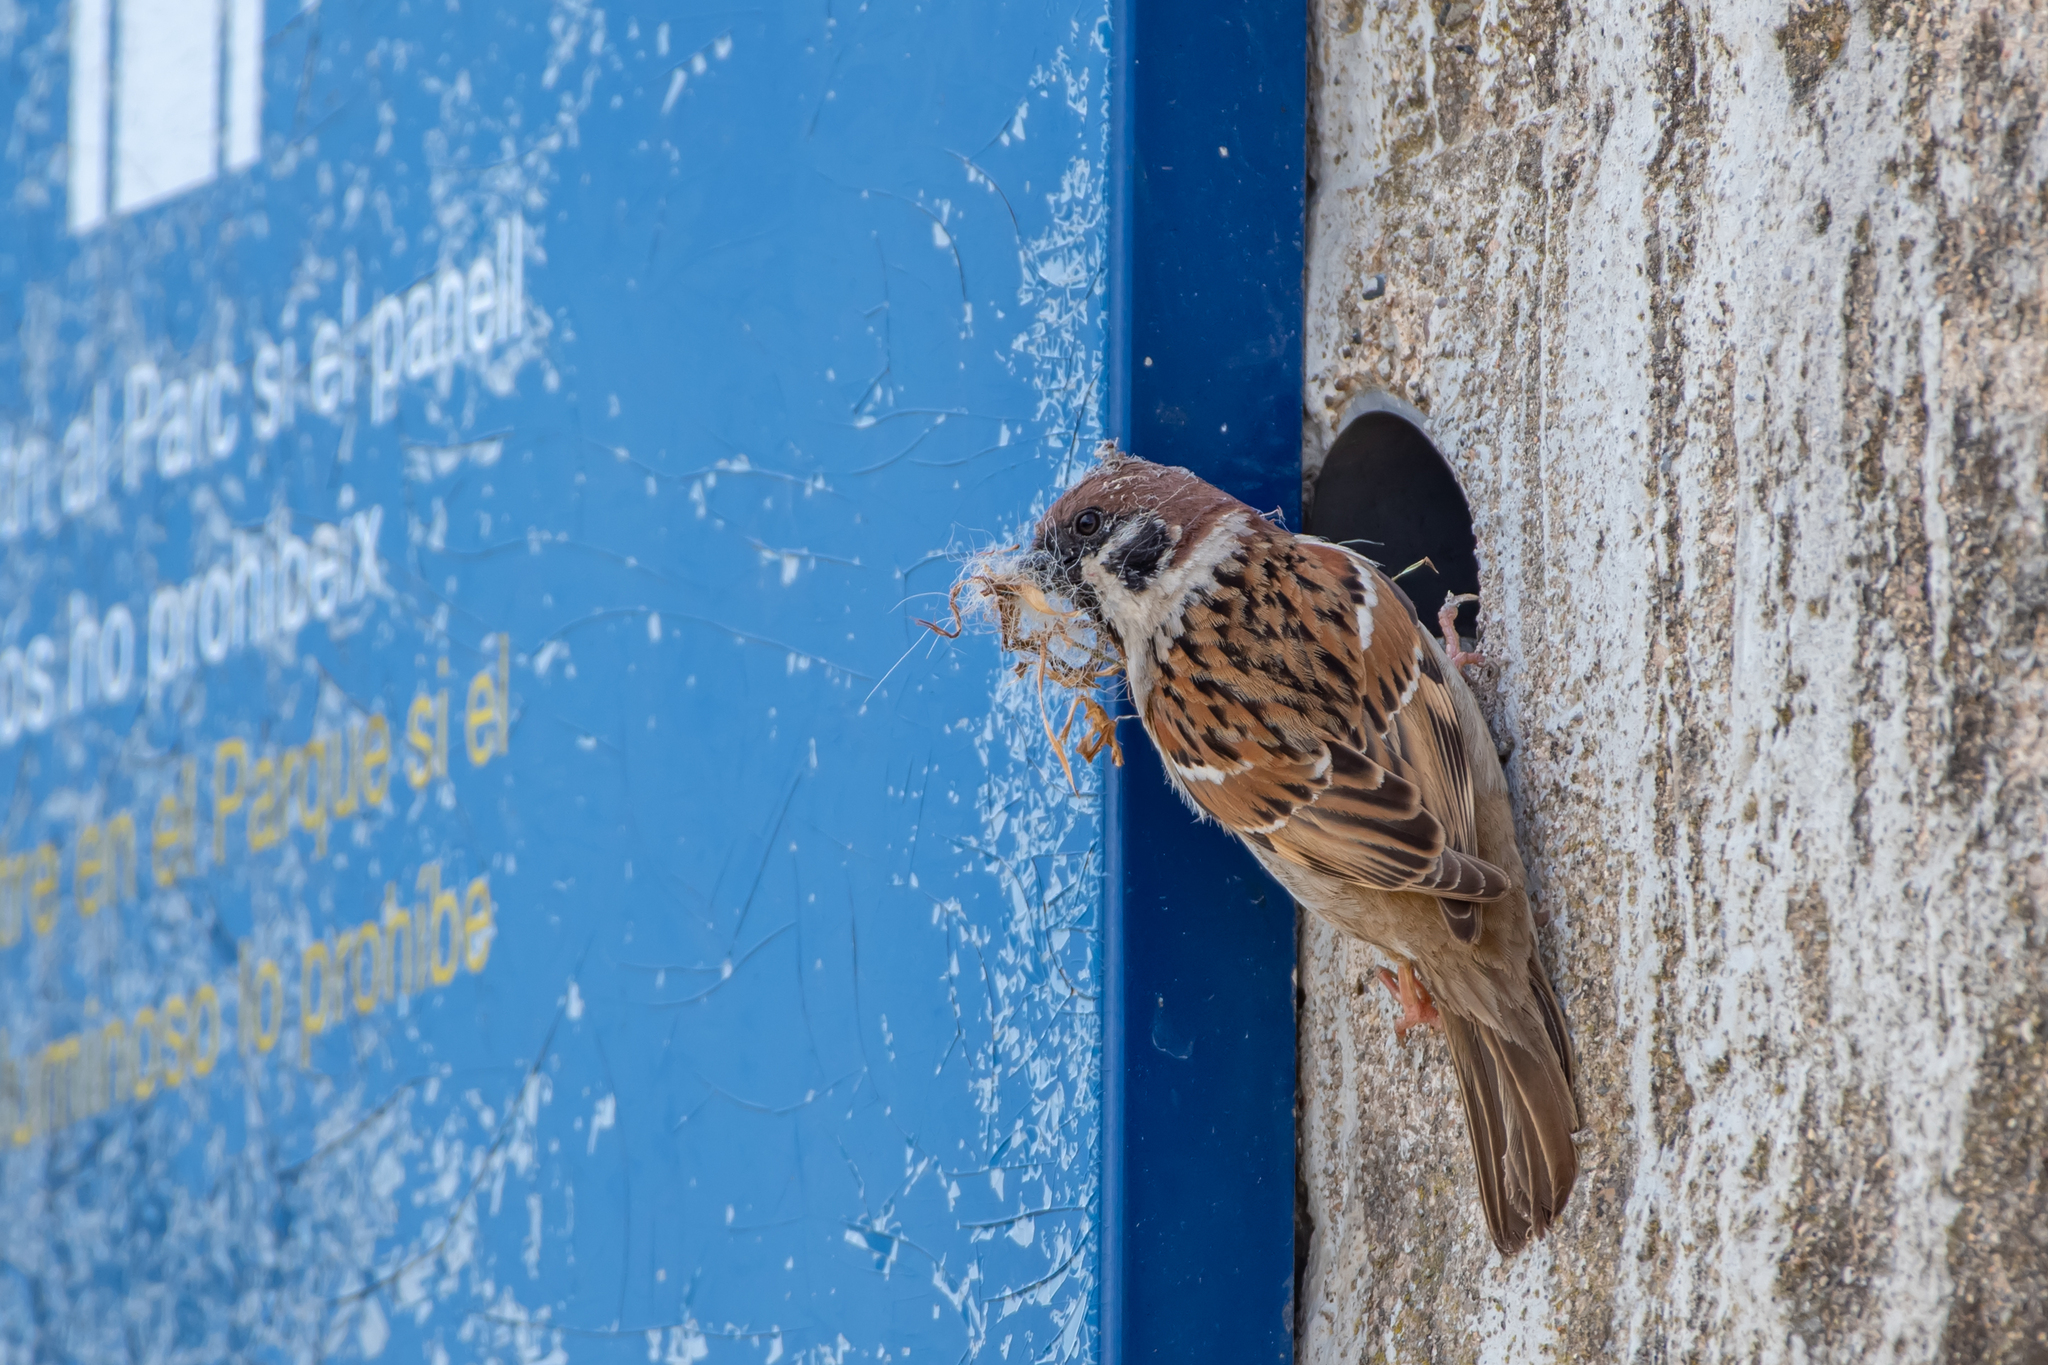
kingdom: Animalia
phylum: Chordata
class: Aves
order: Passeriformes
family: Passeridae
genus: Passer
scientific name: Passer montanus
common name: Eurasian tree sparrow
